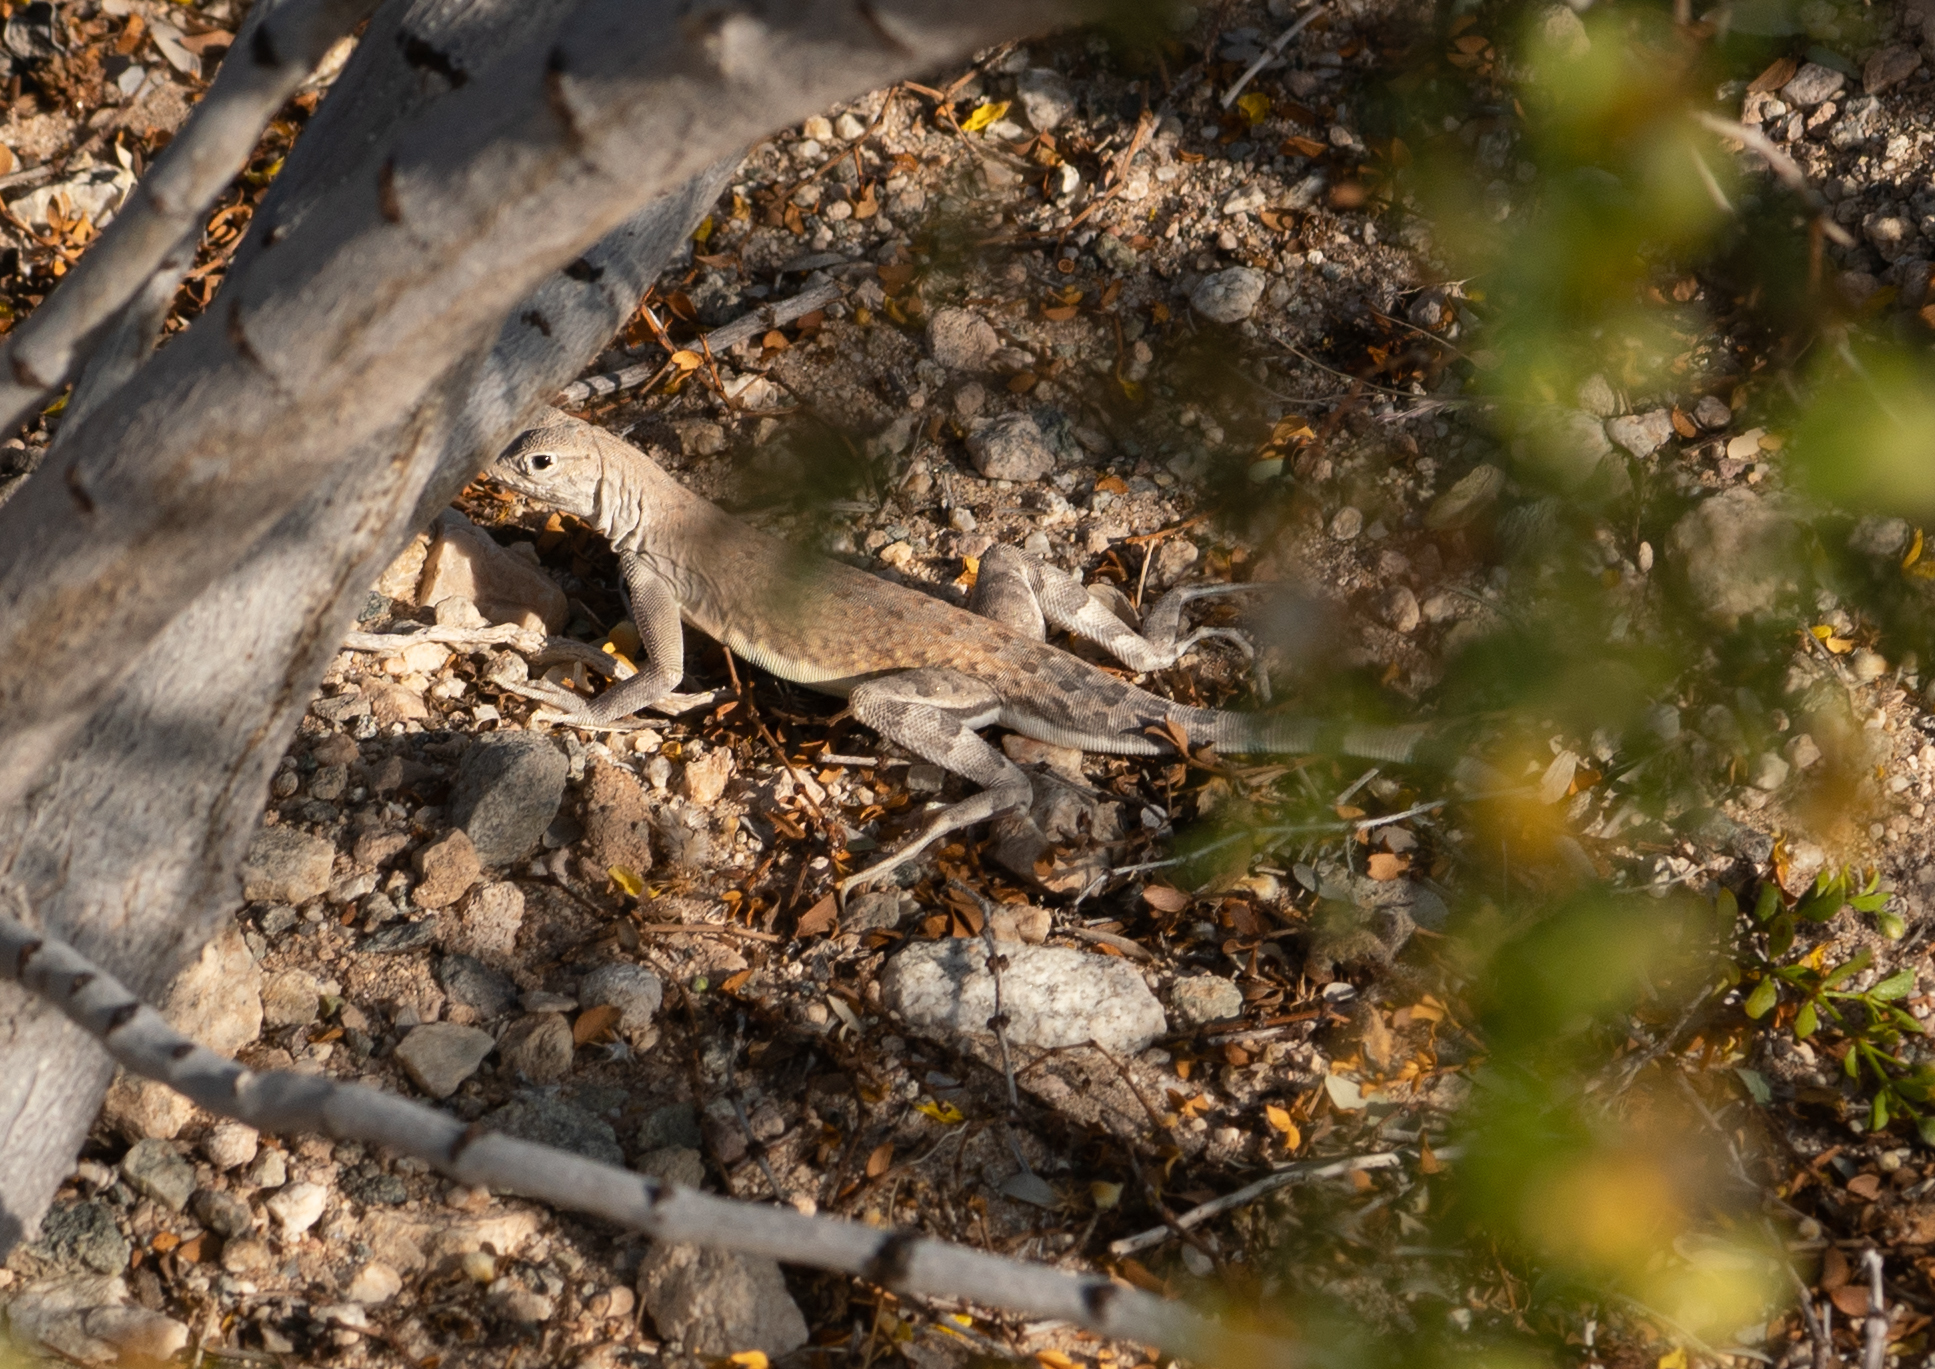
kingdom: Animalia
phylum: Chordata
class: Squamata
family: Phrynosomatidae
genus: Callisaurus
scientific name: Callisaurus draconoides
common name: Zebra-tailed lizard
